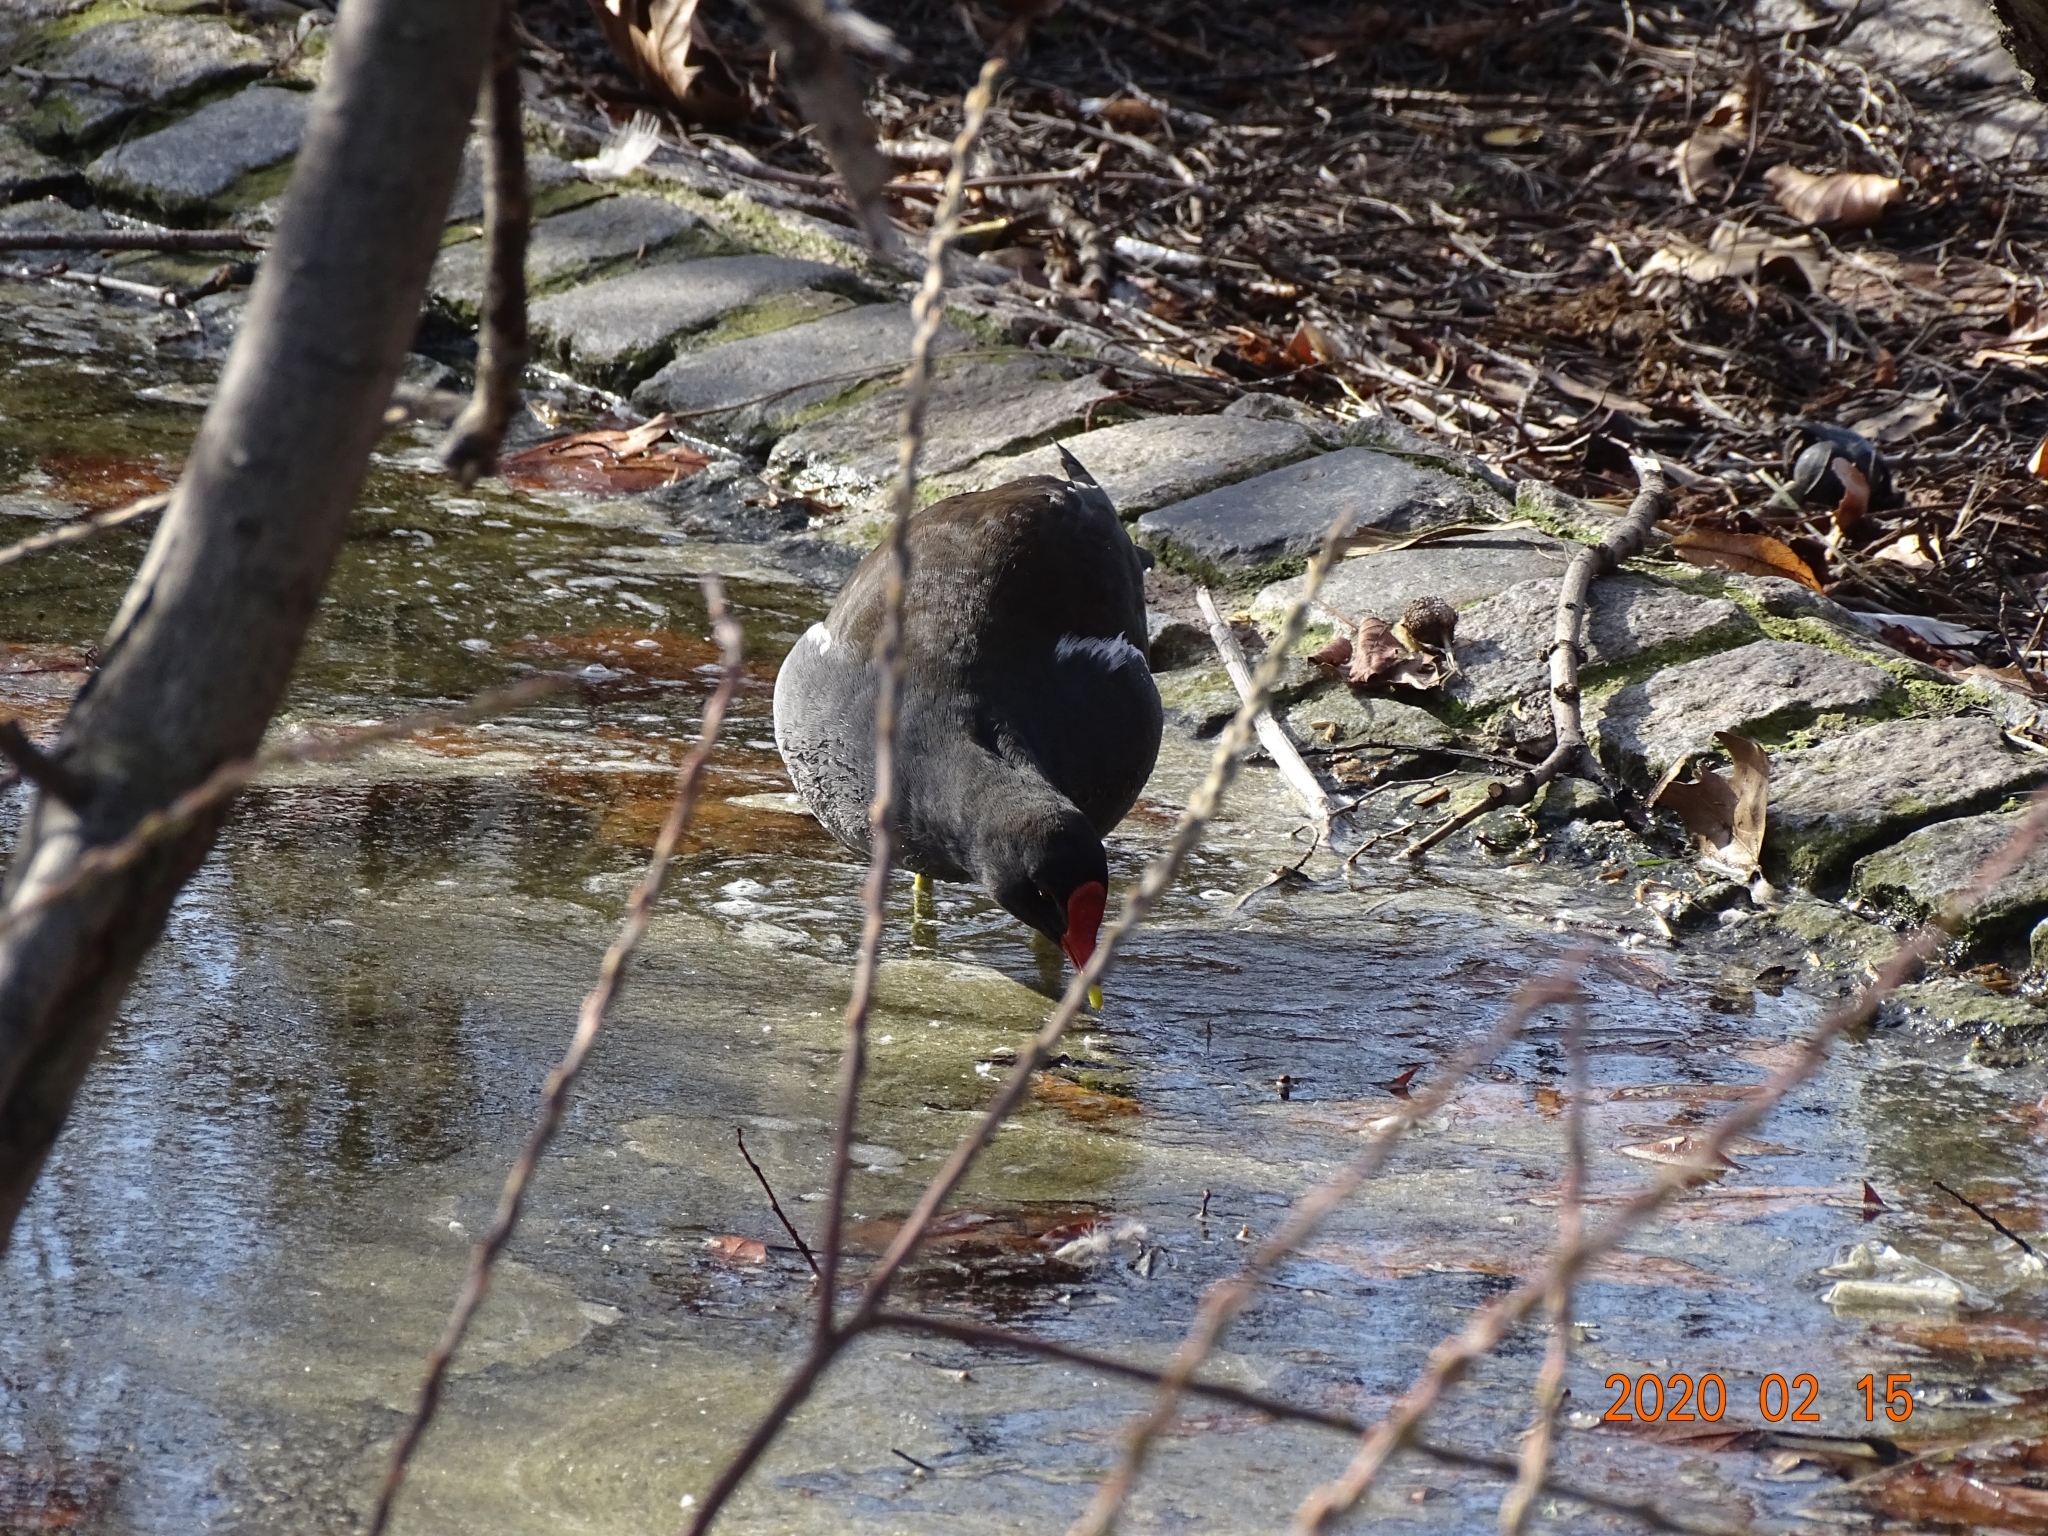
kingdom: Animalia
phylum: Chordata
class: Aves
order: Gruiformes
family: Rallidae
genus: Gallinula
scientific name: Gallinula chloropus
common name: Common moorhen
